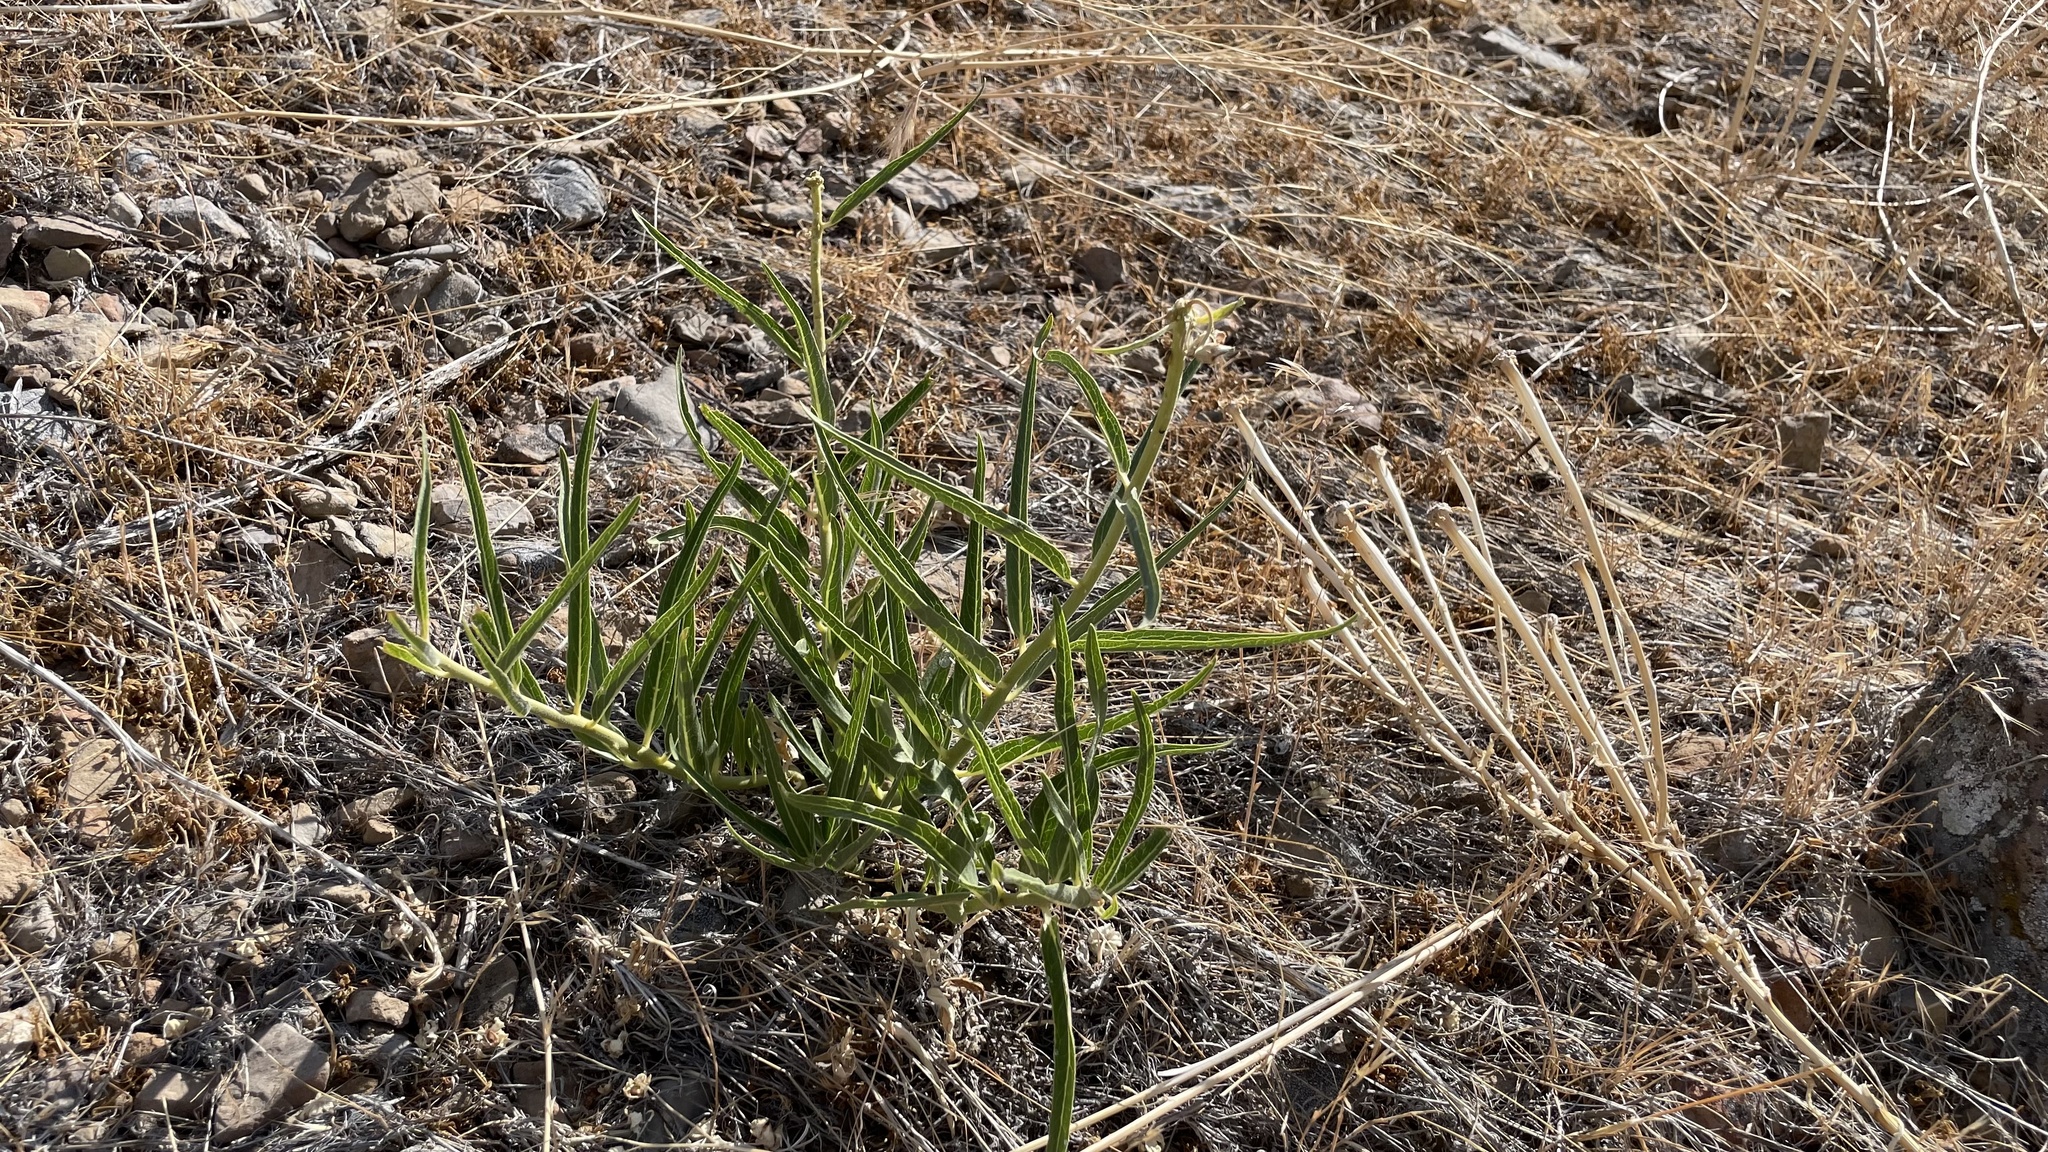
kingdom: Plantae
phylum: Tracheophyta
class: Magnoliopsida
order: Gentianales
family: Apocynaceae
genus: Asclepias
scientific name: Asclepias asperula
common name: Antelope horns
